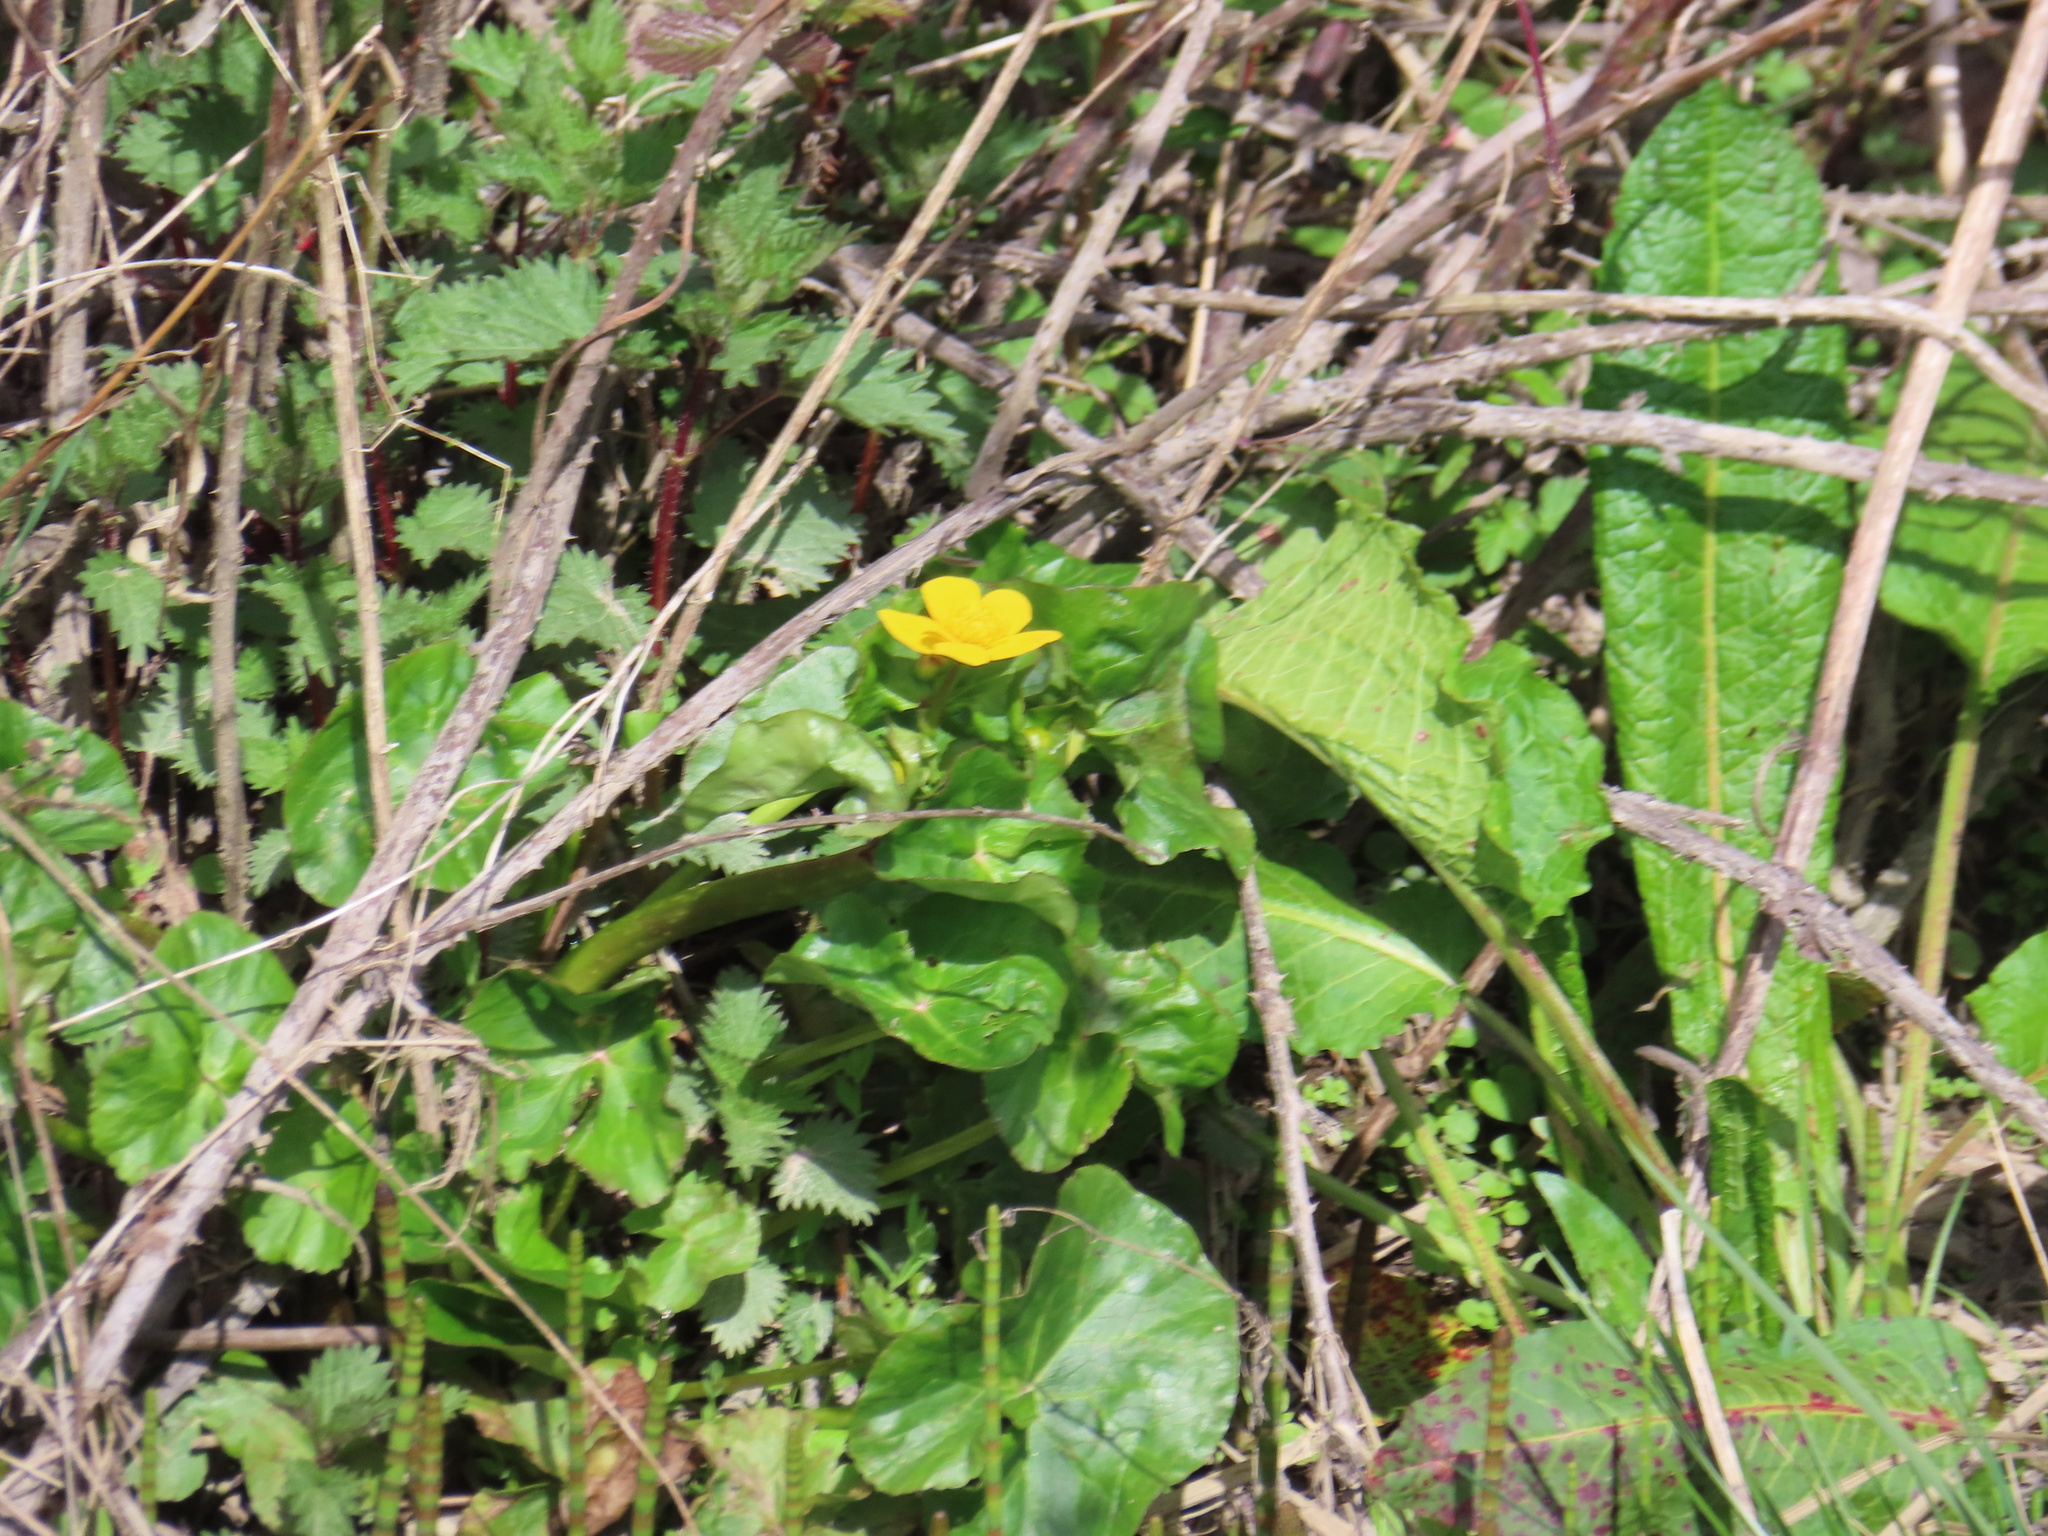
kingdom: Plantae
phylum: Tracheophyta
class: Magnoliopsida
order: Ranunculales
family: Ranunculaceae
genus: Caltha
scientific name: Caltha palustris
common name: Marsh marigold
